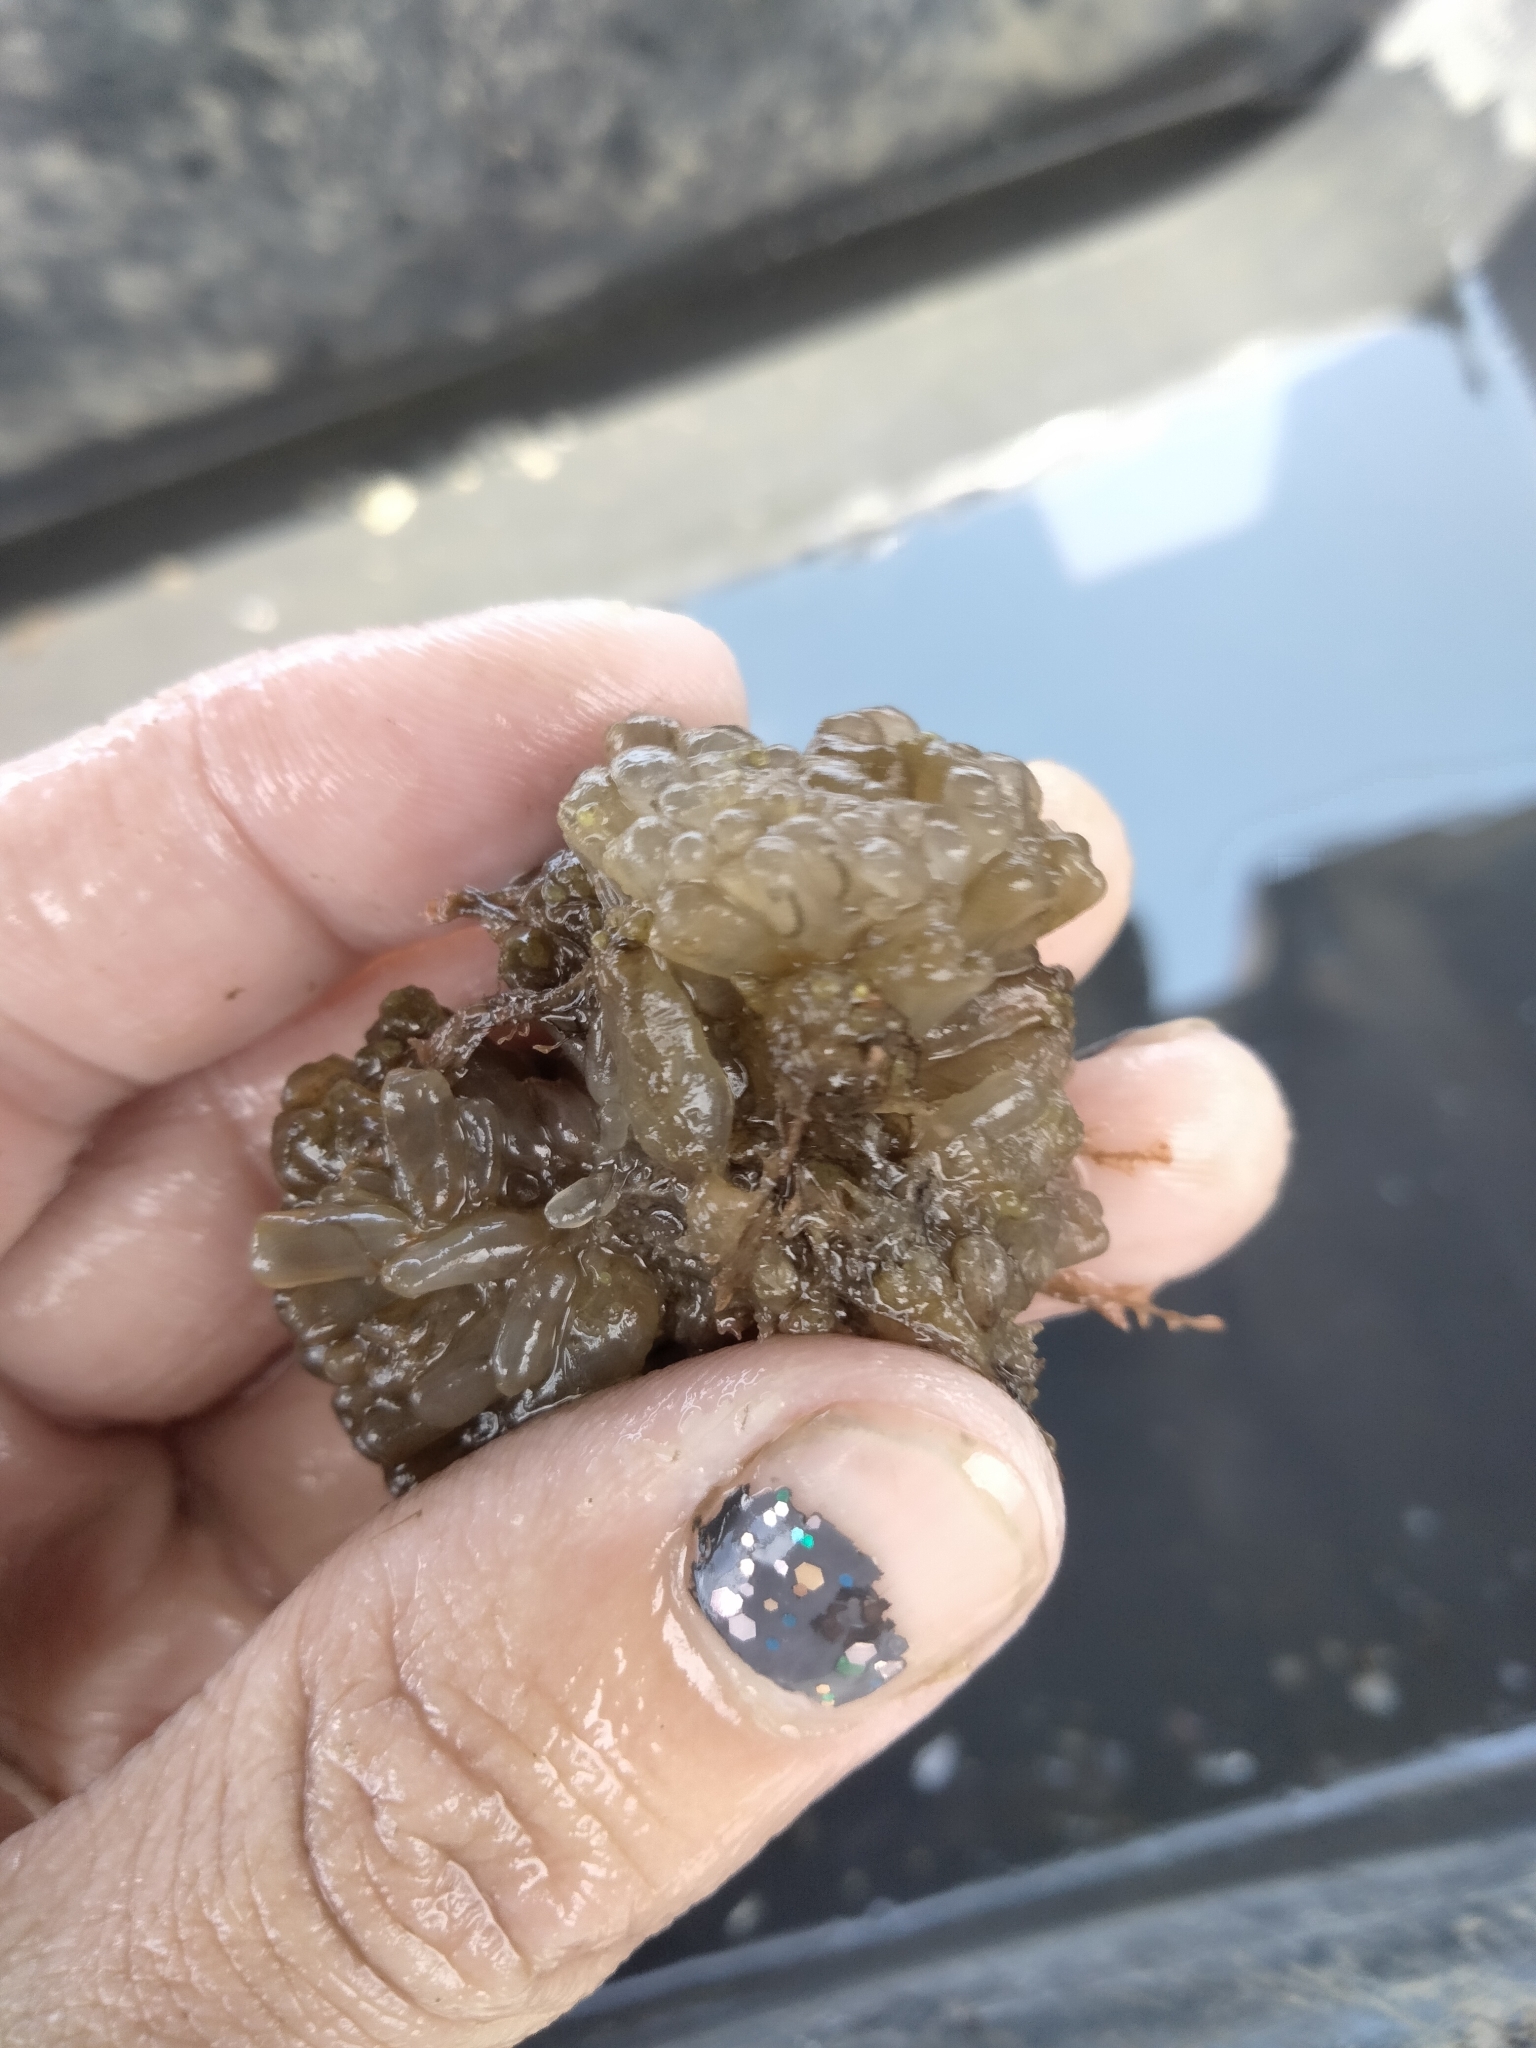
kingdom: Animalia
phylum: Chordata
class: Ascidiacea
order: Phlebobranchia
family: Perophoridae
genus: Ecteinascidia
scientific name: Ecteinascidia turbinata
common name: Mangrove tunicate
